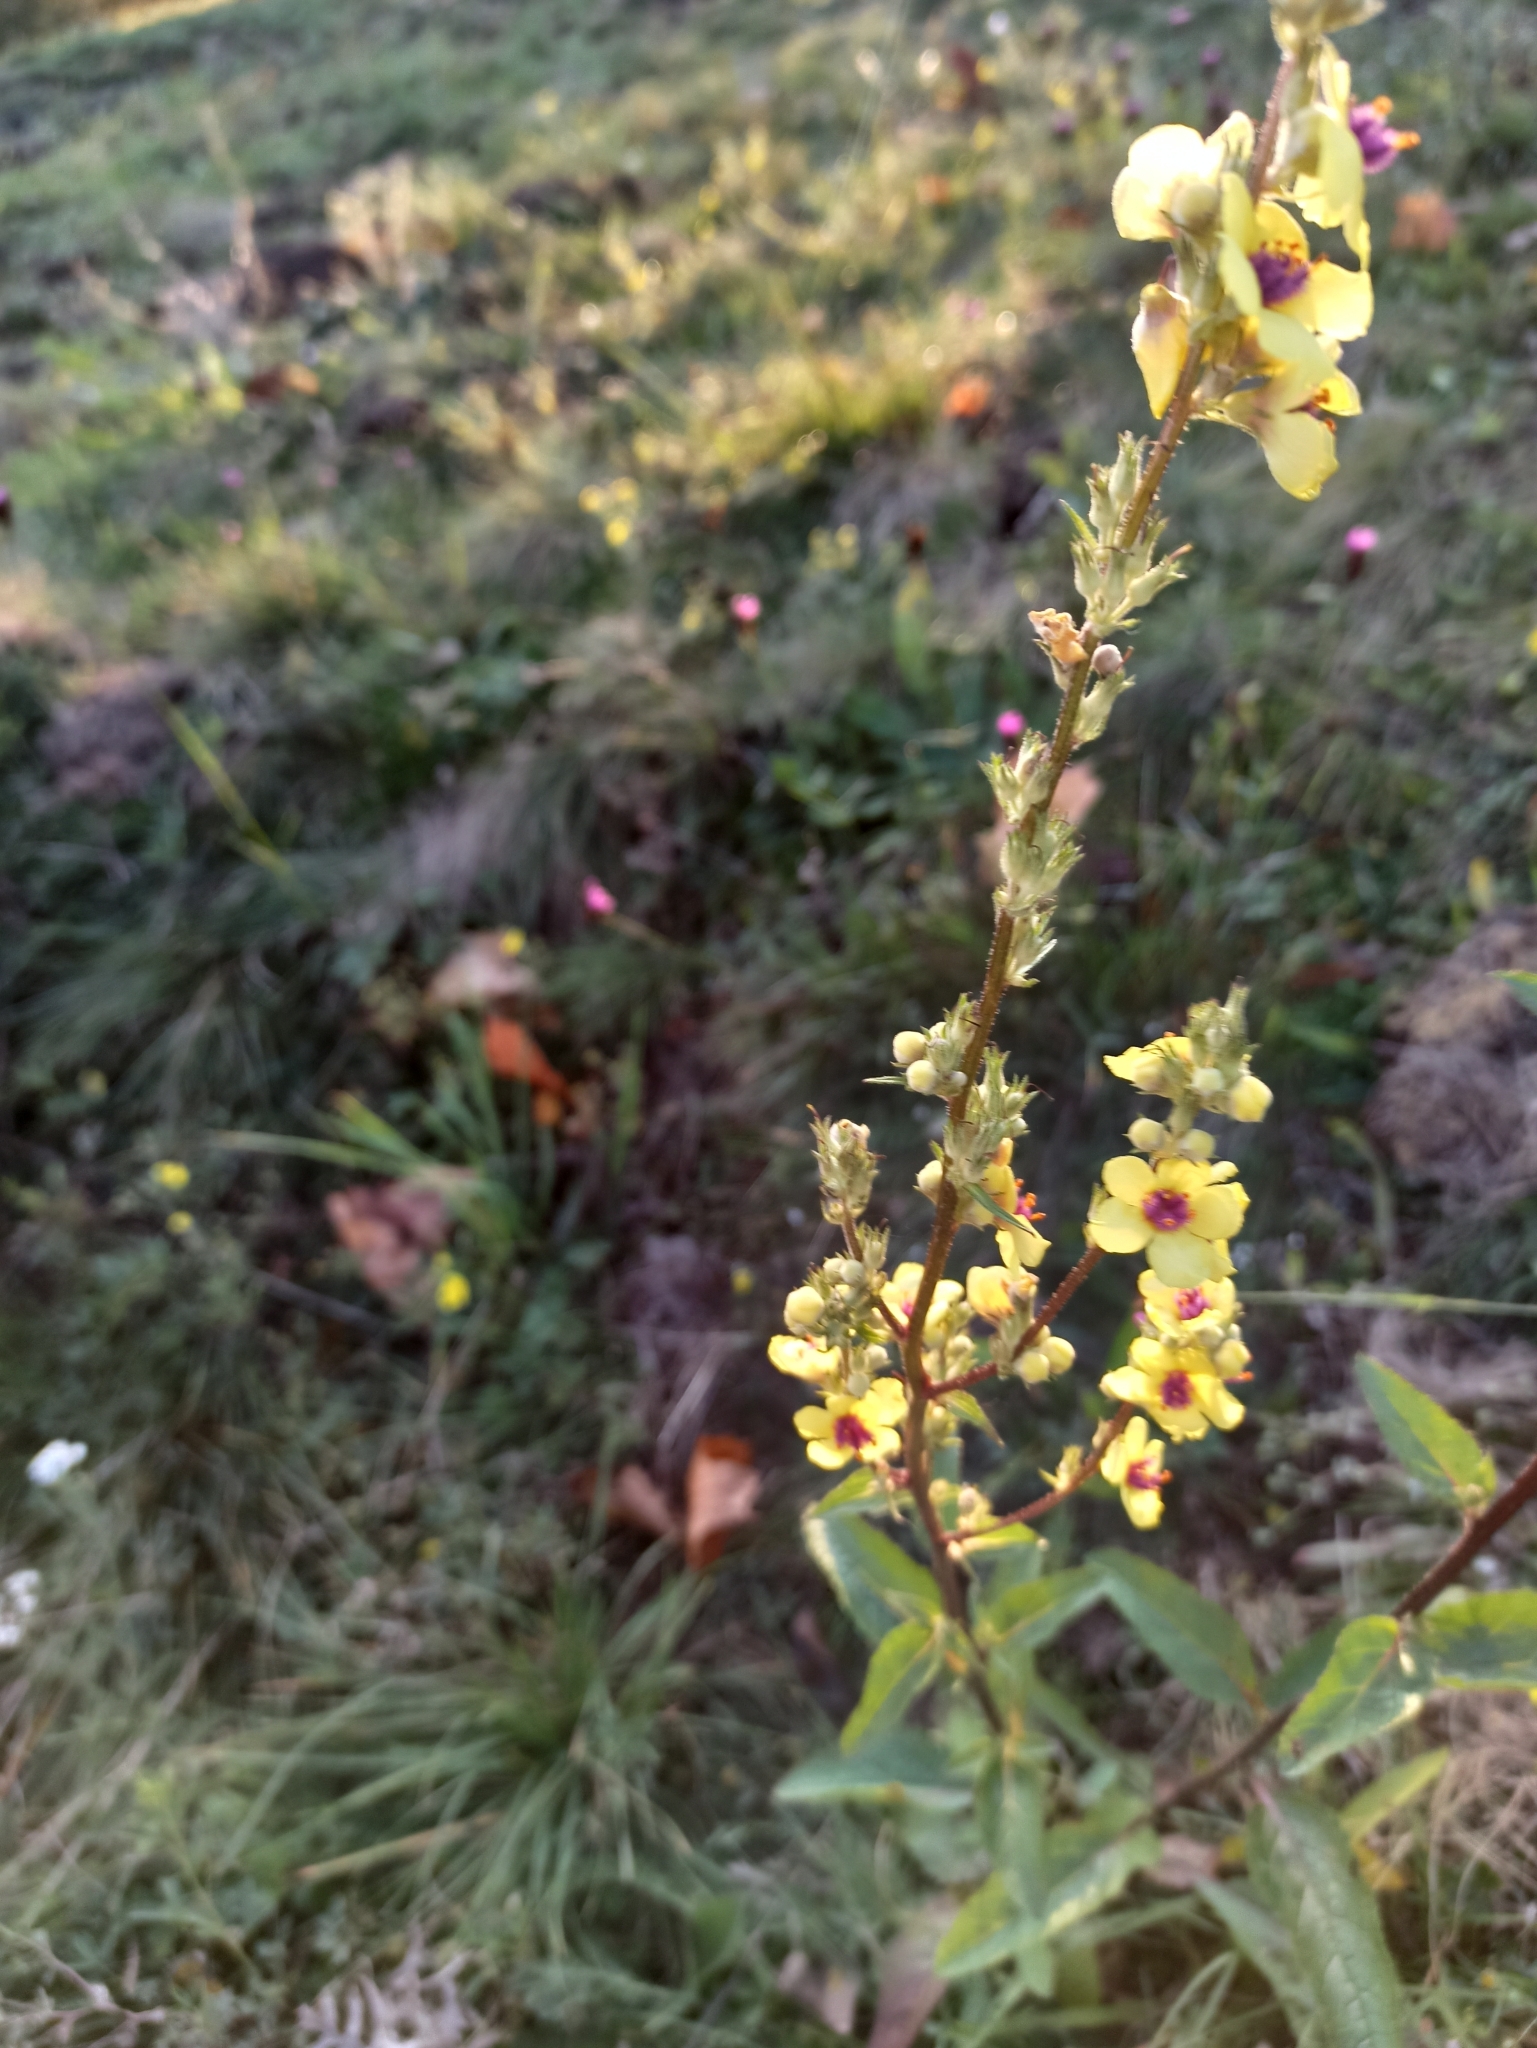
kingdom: Plantae
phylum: Tracheophyta
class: Magnoliopsida
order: Lamiales
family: Scrophulariaceae
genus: Verbascum
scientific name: Verbascum chaixii
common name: Nettle-leaved mullein
